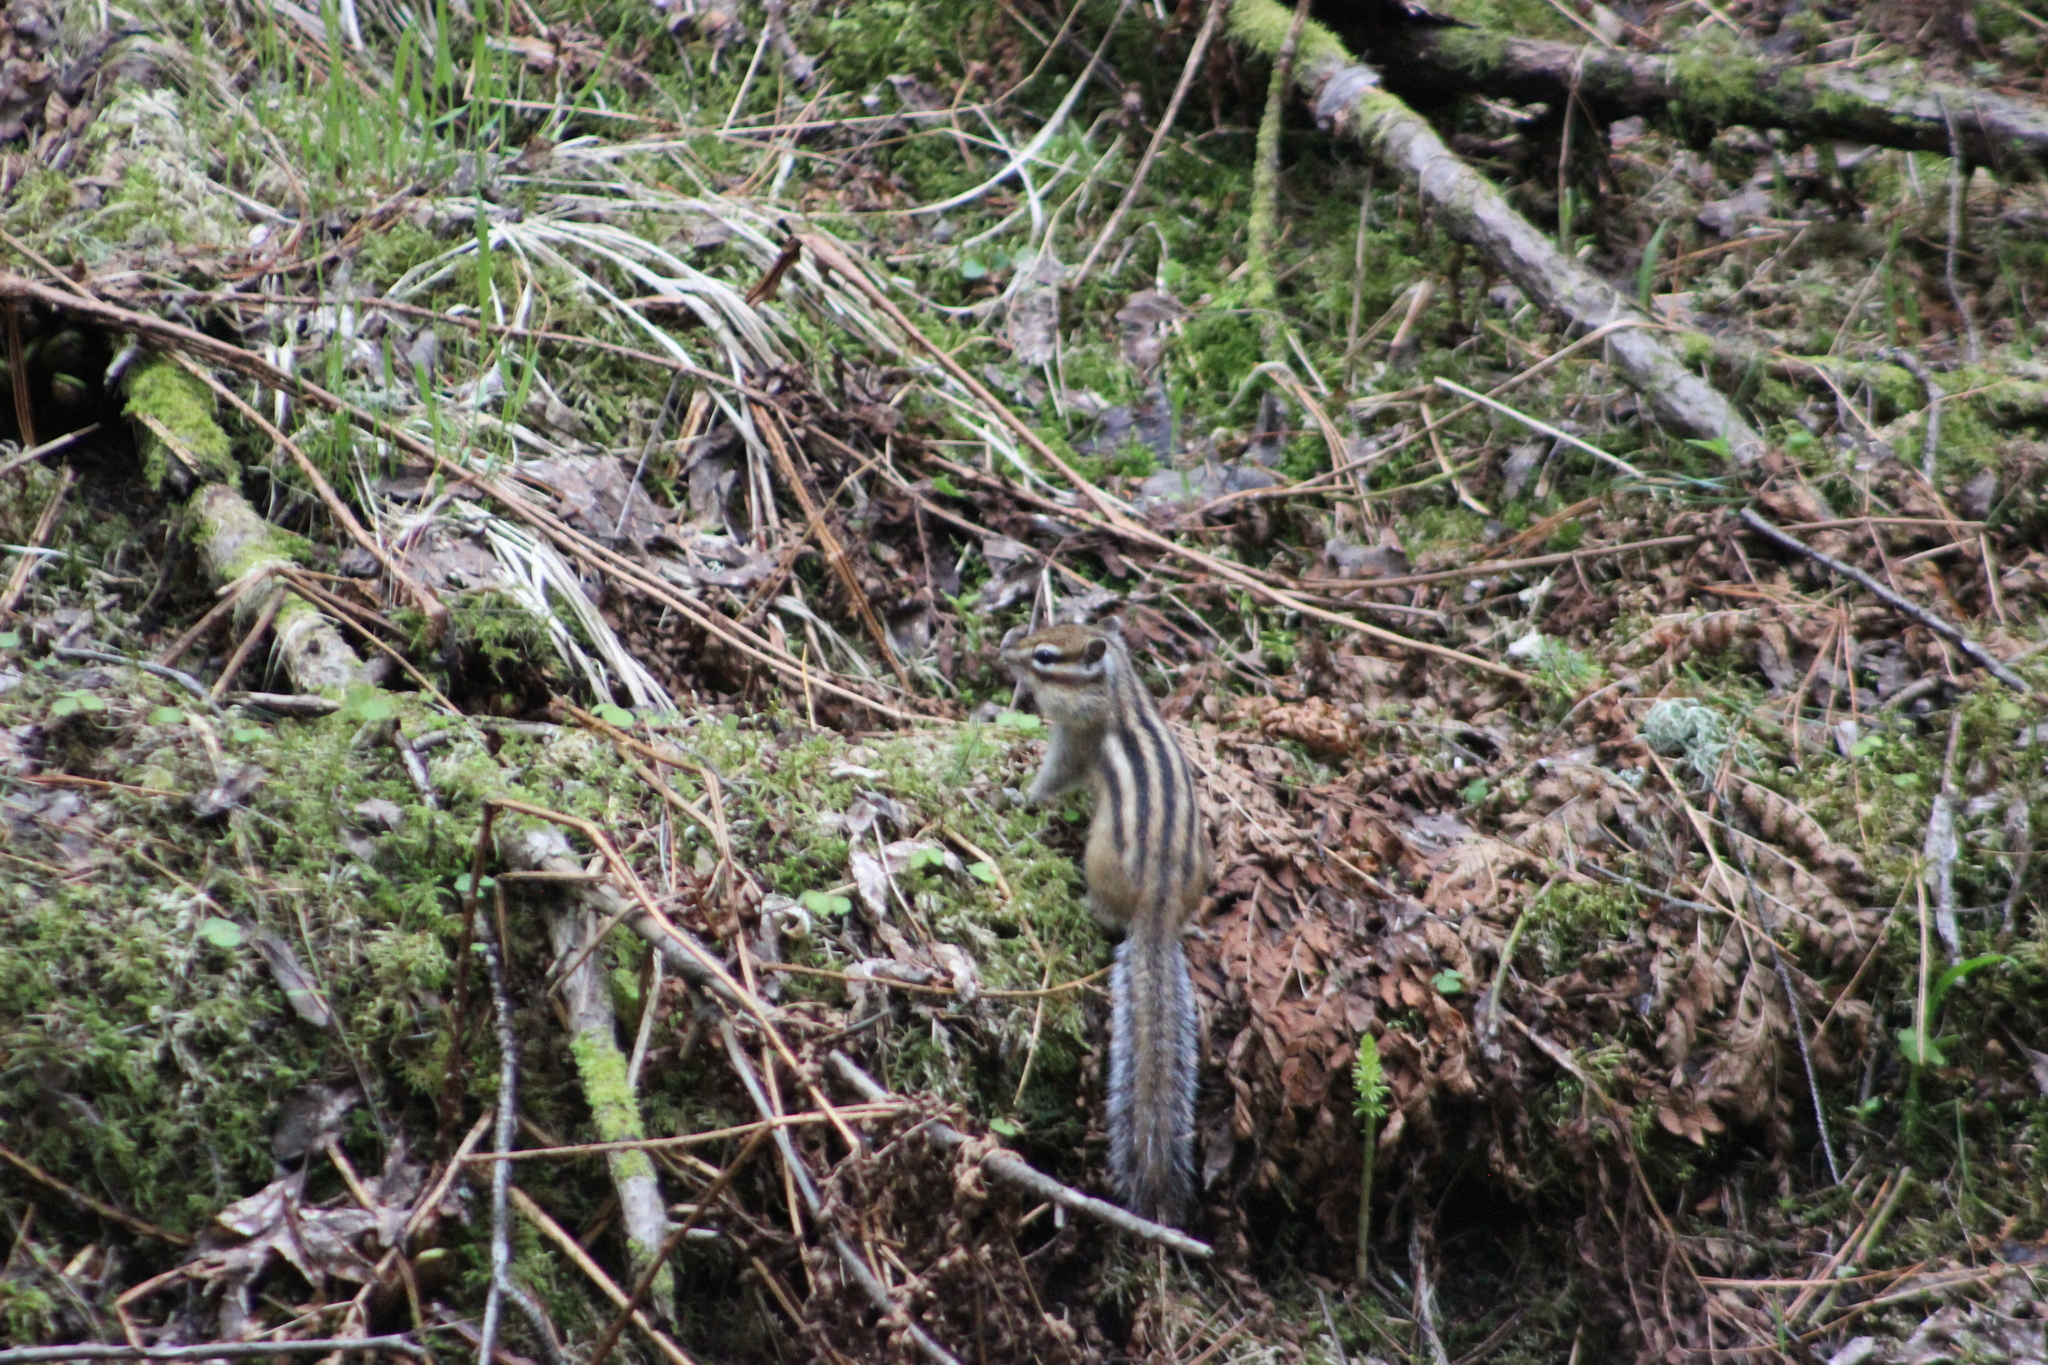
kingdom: Animalia
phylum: Chordata
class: Mammalia
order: Rodentia
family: Sciuridae
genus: Tamias
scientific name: Tamias sibiricus
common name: Siberian chipmunk
